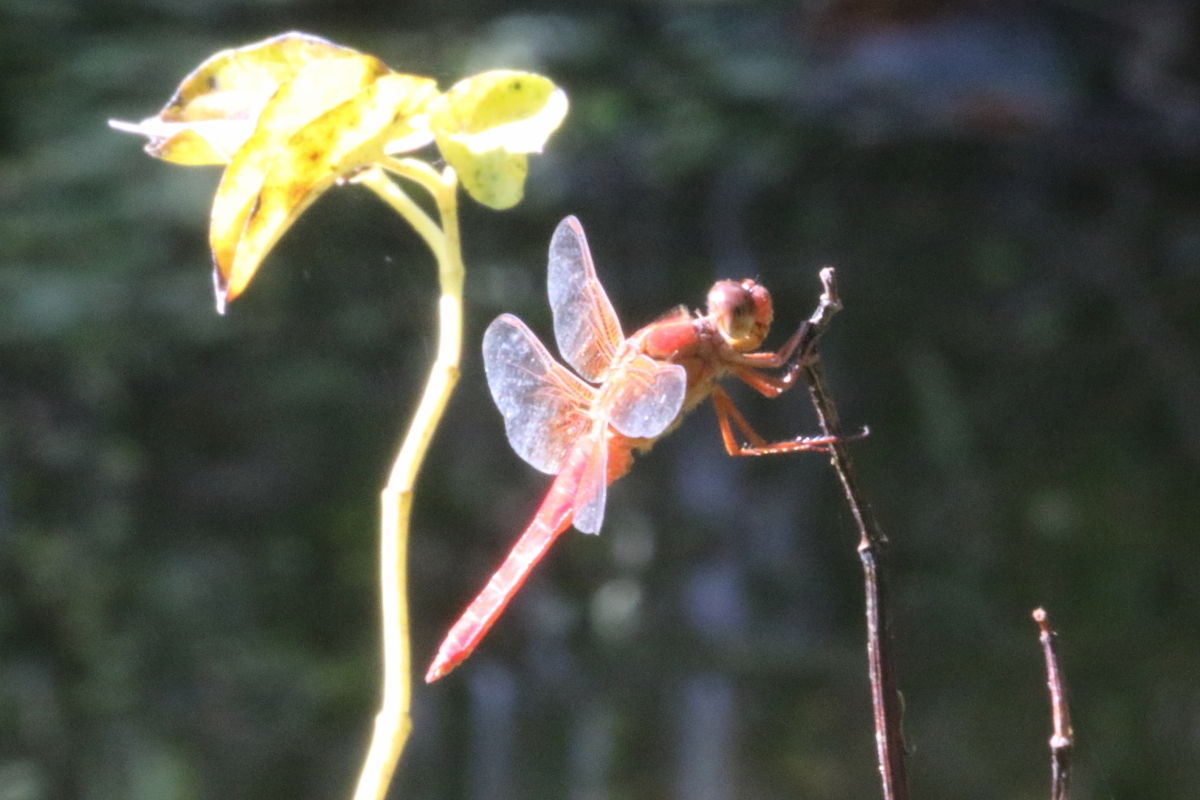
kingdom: Animalia
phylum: Arthropoda
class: Insecta
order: Odonata
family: Libellulidae
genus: Libellula
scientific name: Libellula croceipennis
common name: Neon skimmer
